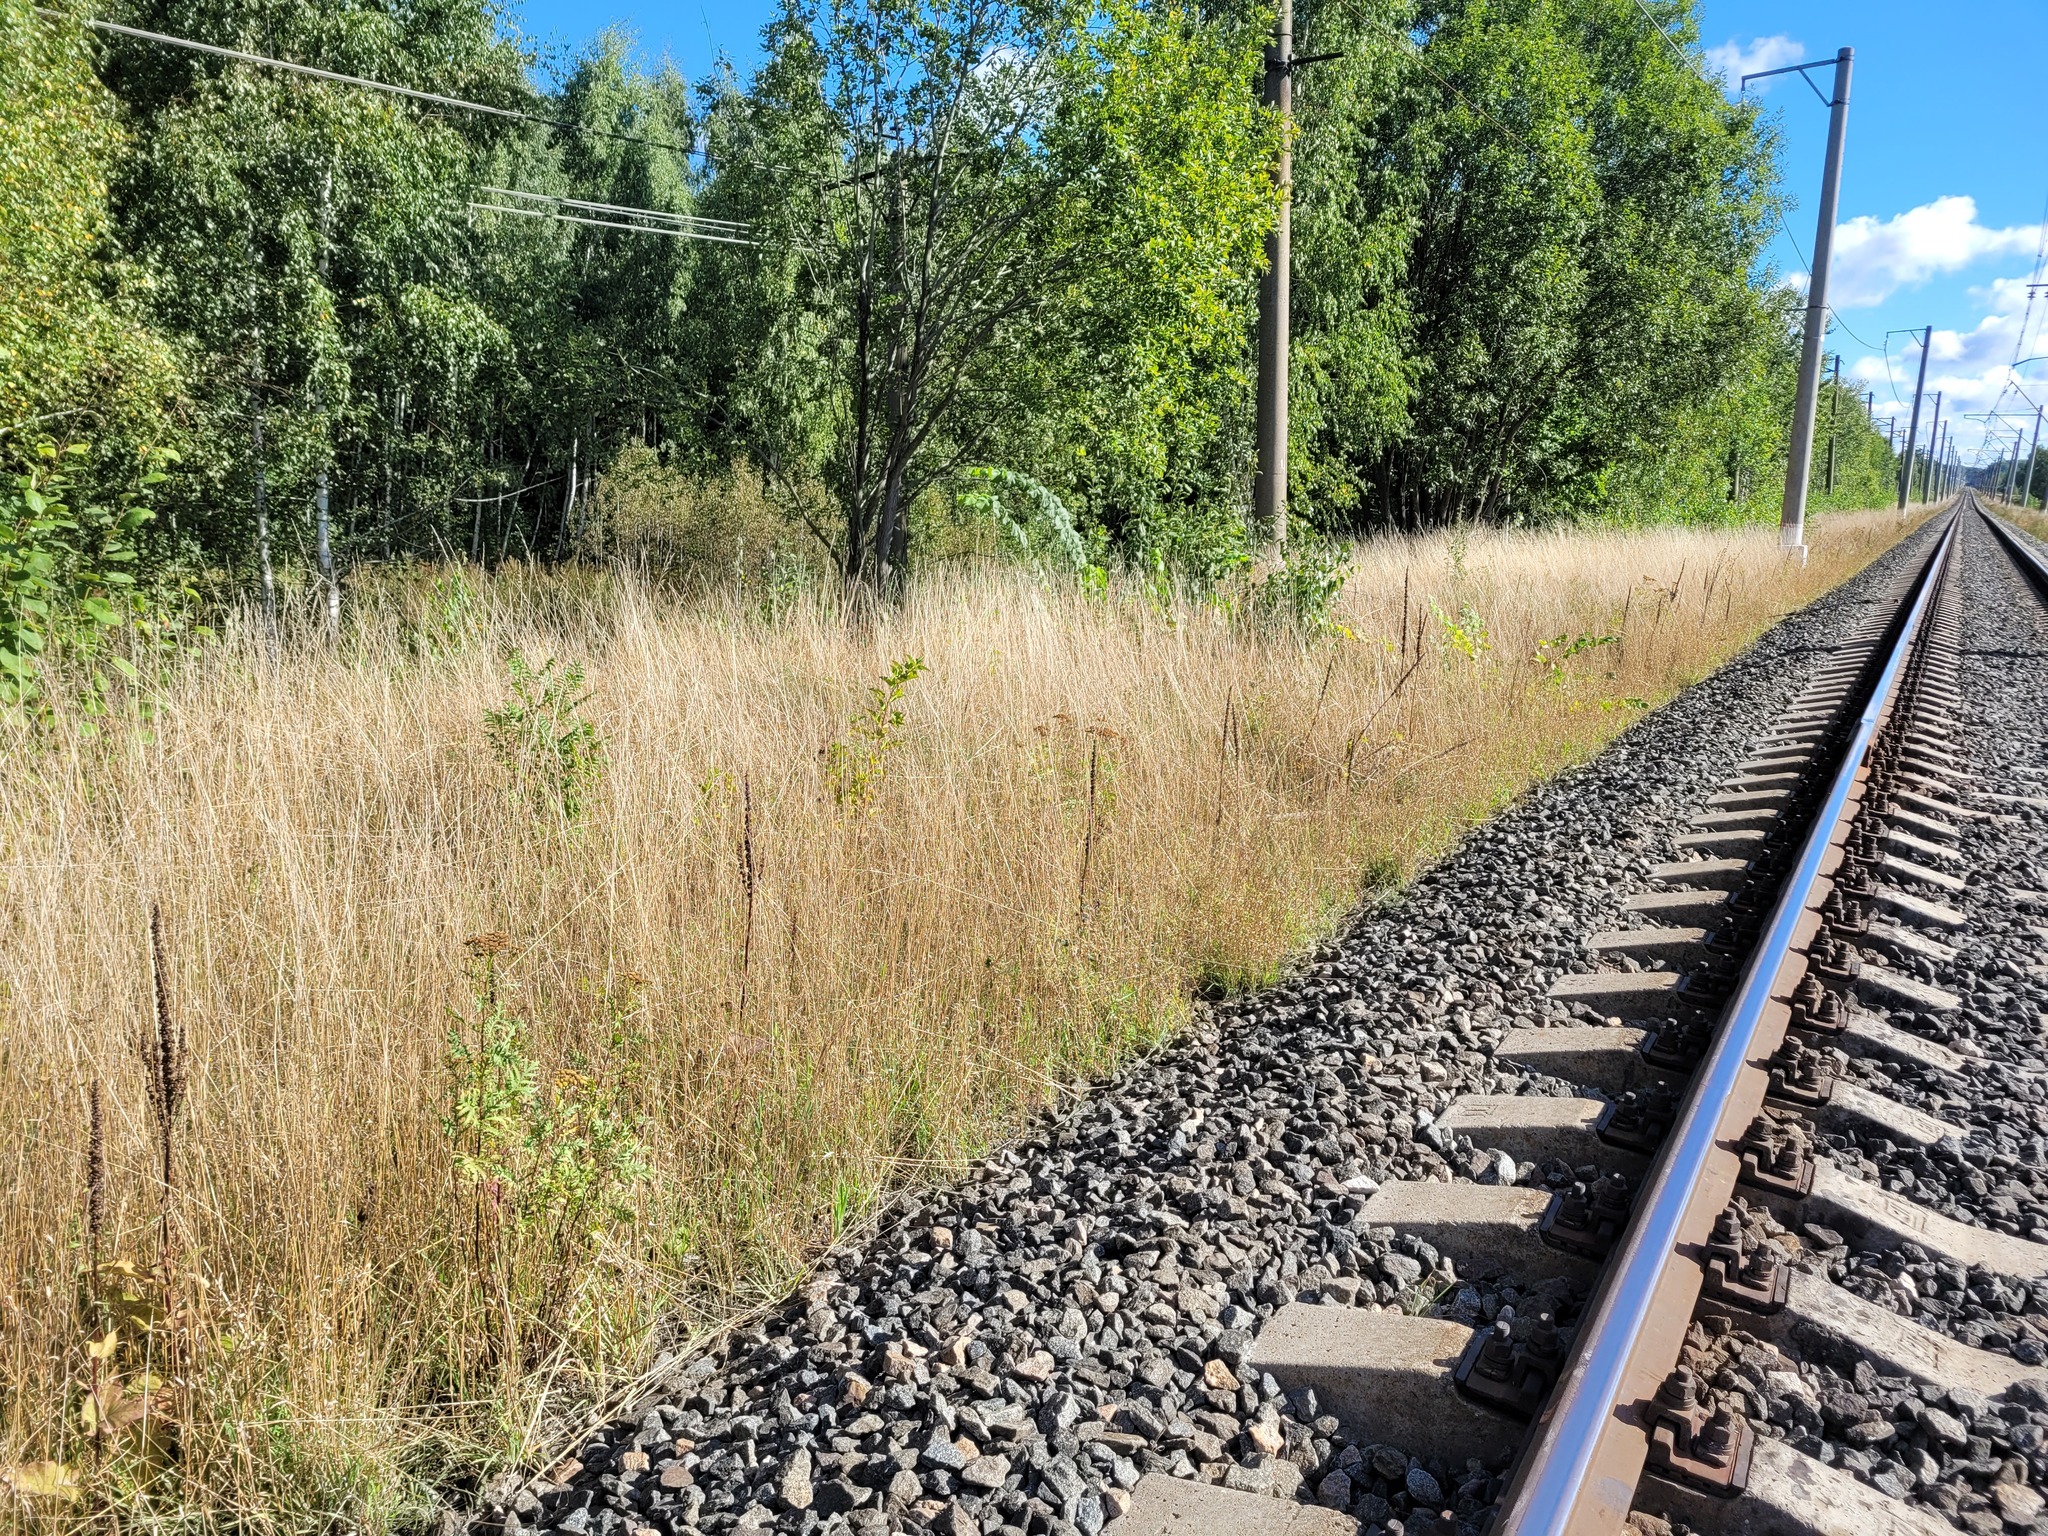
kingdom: Plantae
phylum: Tracheophyta
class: Magnoliopsida
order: Lamiales
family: Scrophulariaceae
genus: Verbascum
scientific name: Verbascum nigrum
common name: Dark mullein
